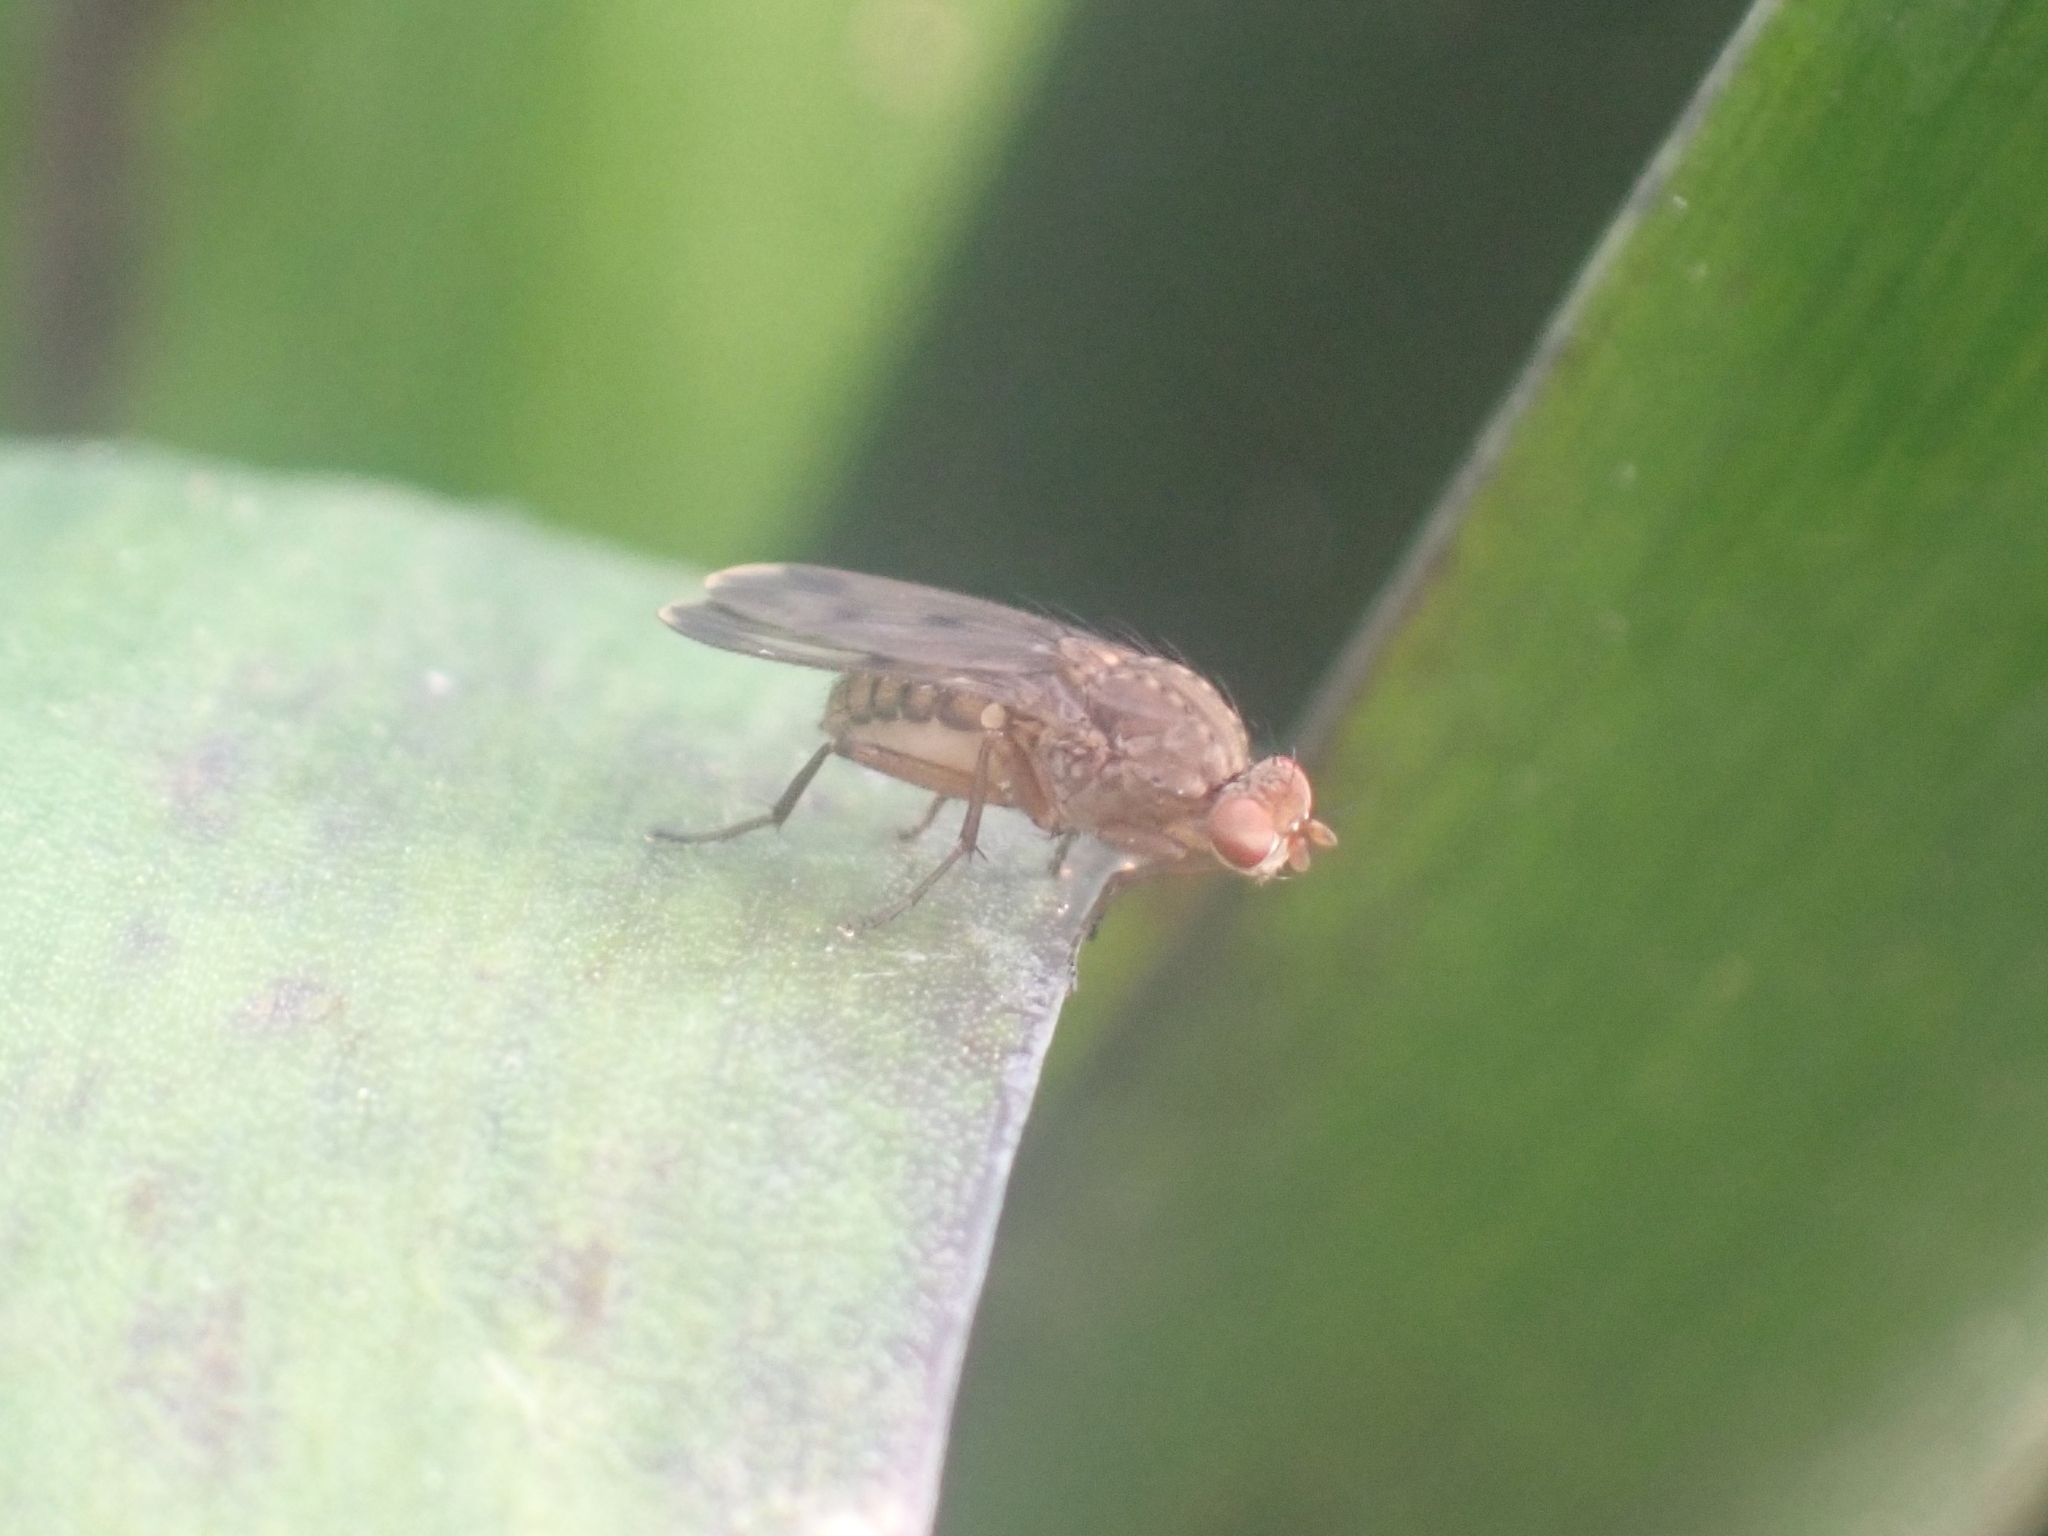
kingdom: Animalia
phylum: Arthropoda
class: Insecta
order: Diptera
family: Heleomyzidae
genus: Suillia
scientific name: Suillia variegata
